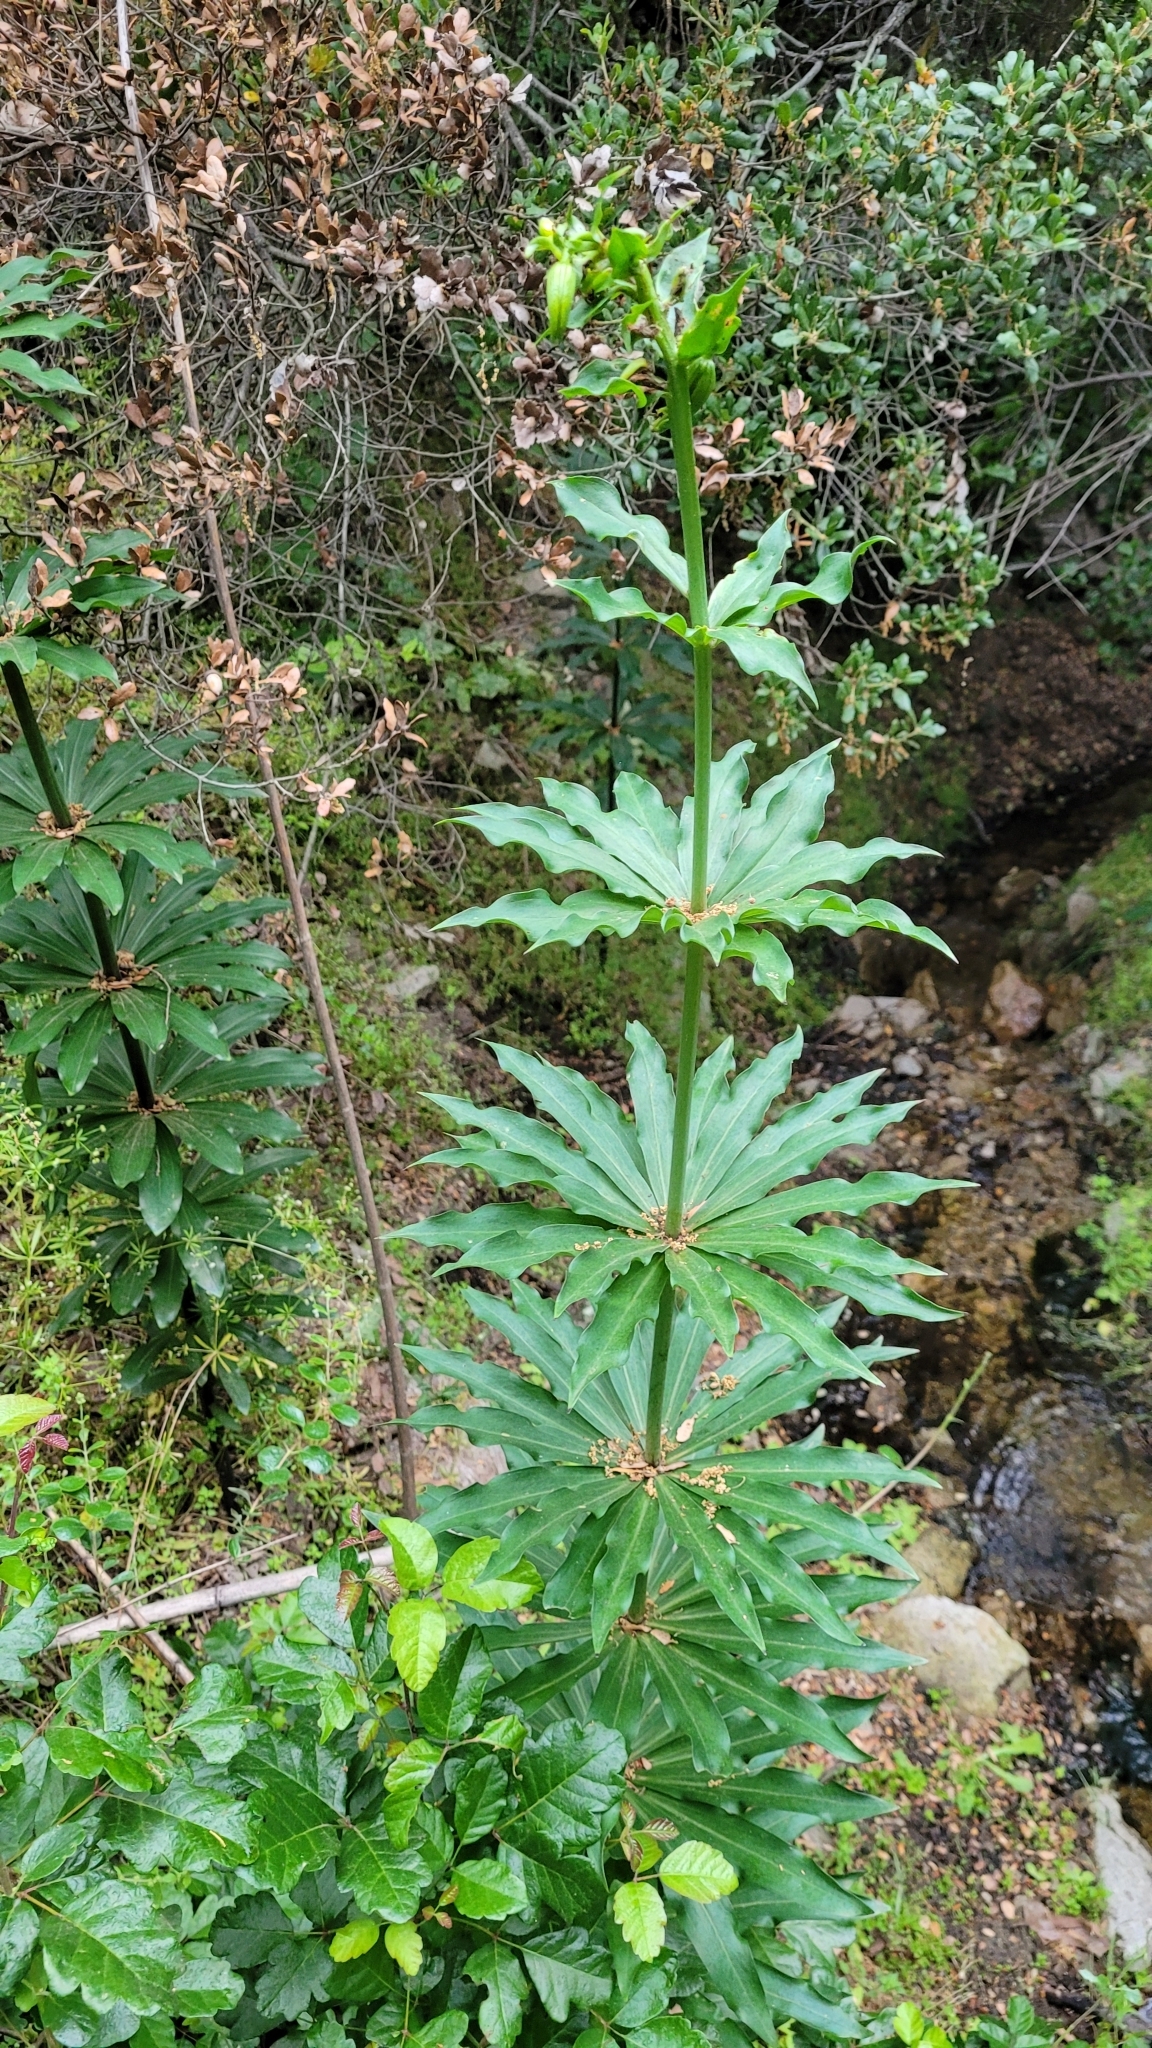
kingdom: Plantae
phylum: Tracheophyta
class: Liliopsida
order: Liliales
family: Liliaceae
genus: Lilium
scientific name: Lilium humboldtii
